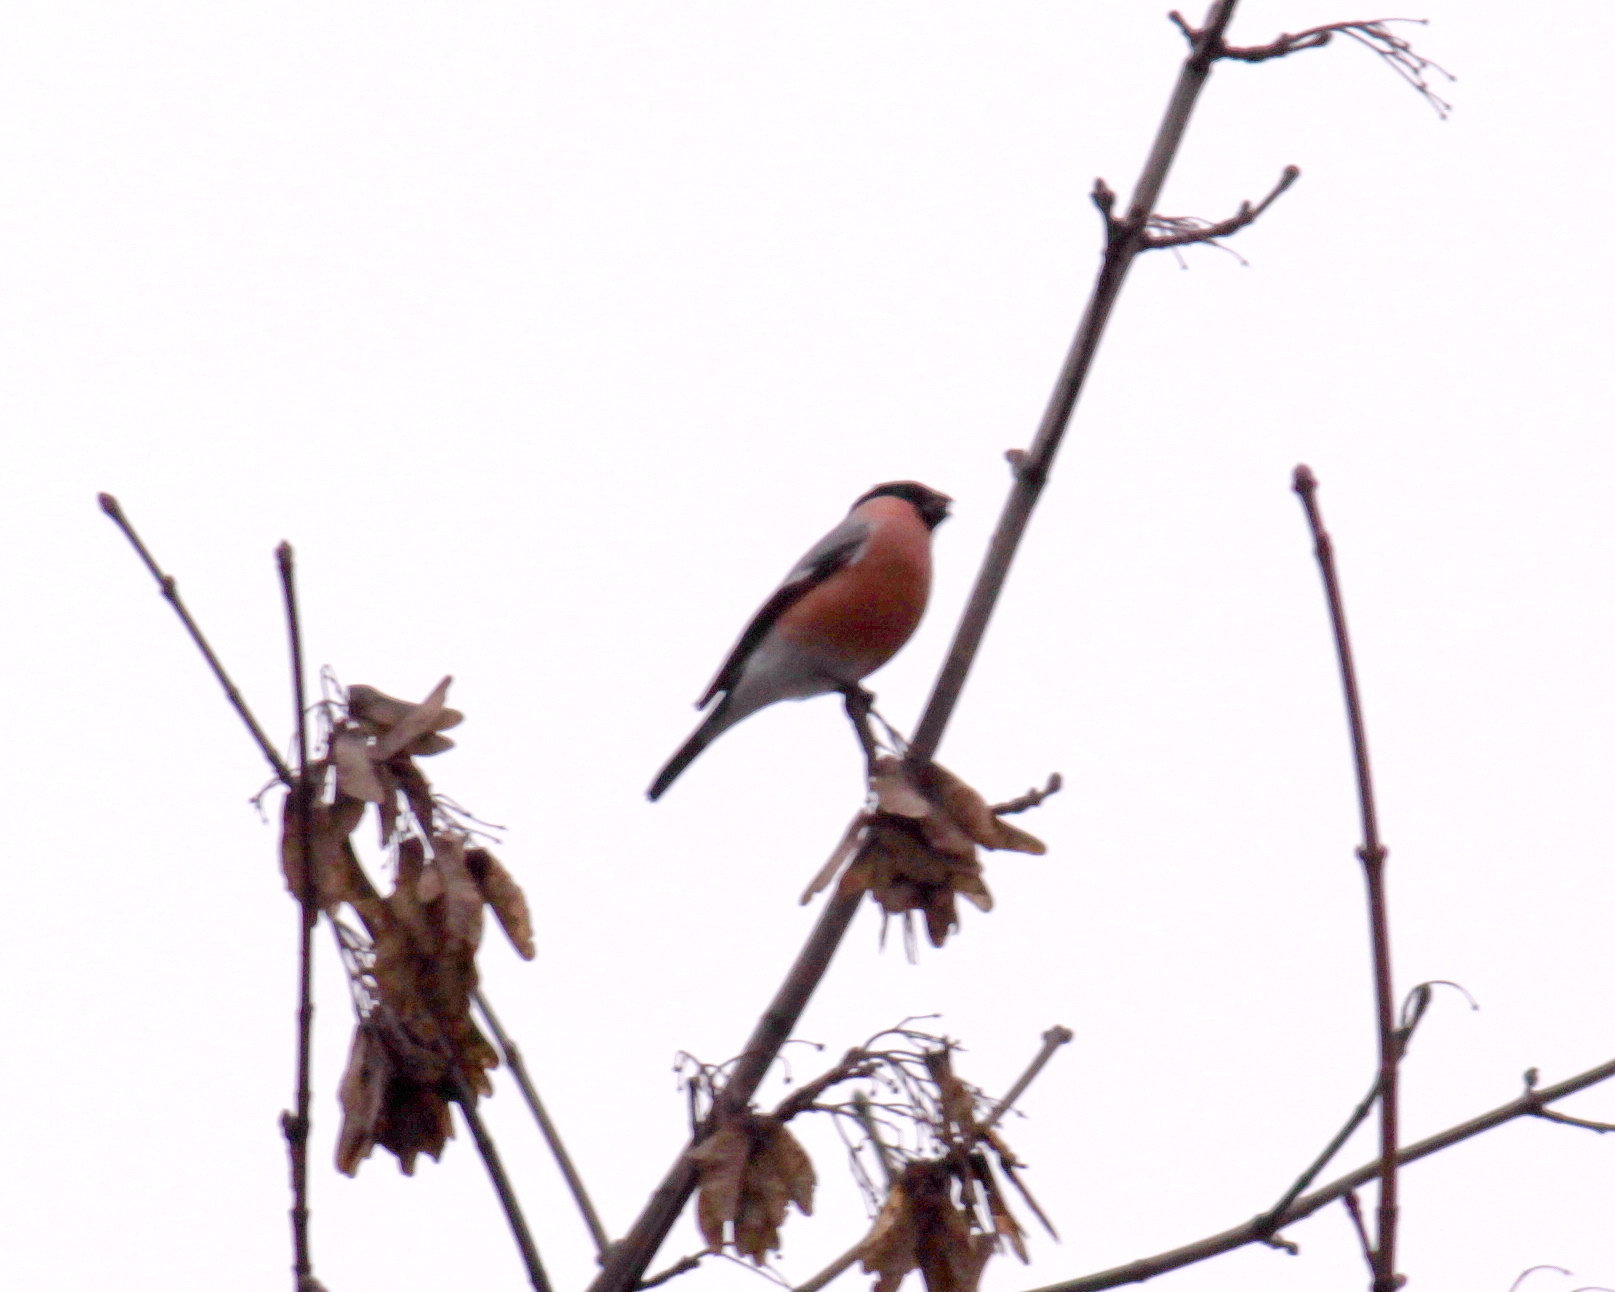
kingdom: Animalia
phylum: Chordata
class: Aves
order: Passeriformes
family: Fringillidae
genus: Pyrrhula
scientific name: Pyrrhula pyrrhula
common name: Eurasian bullfinch
